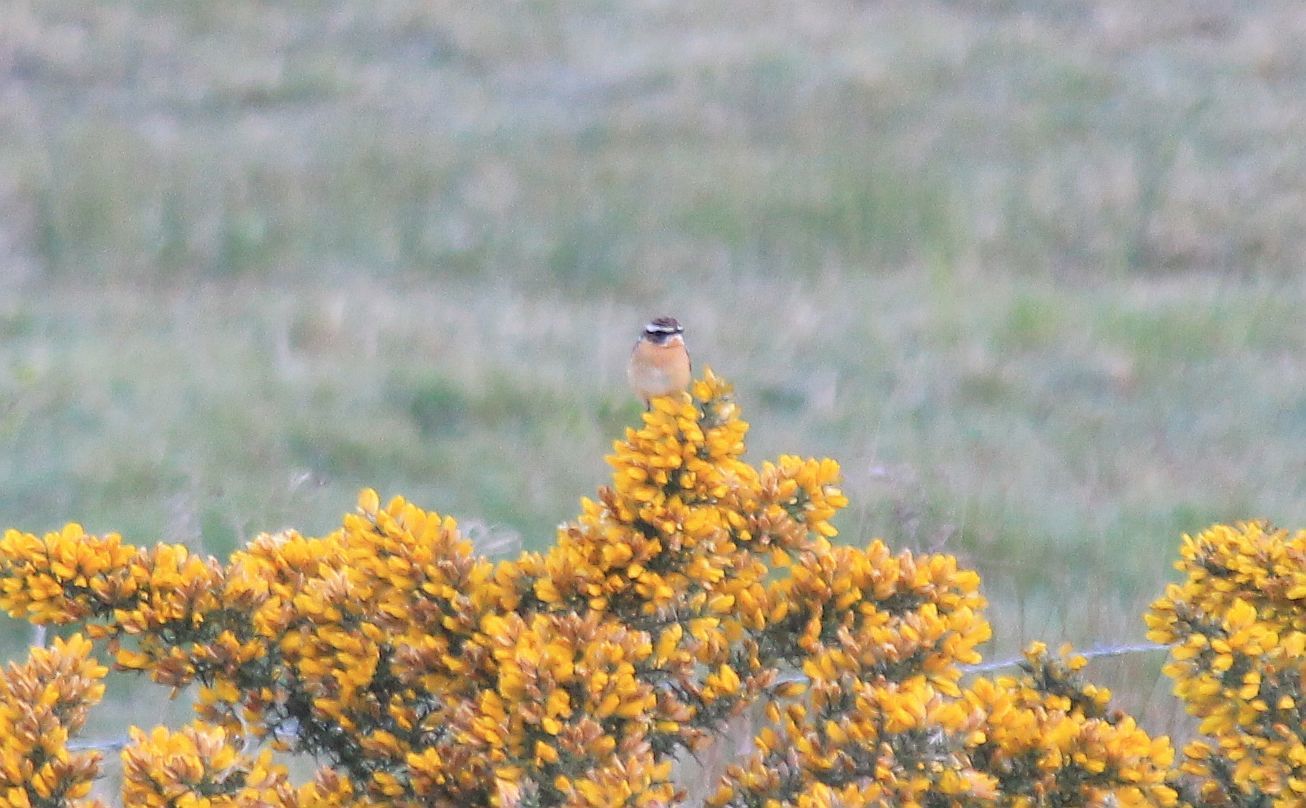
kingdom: Animalia
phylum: Chordata
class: Aves
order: Passeriformes
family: Muscicapidae
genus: Saxicola
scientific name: Saxicola rubetra
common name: Whinchat
